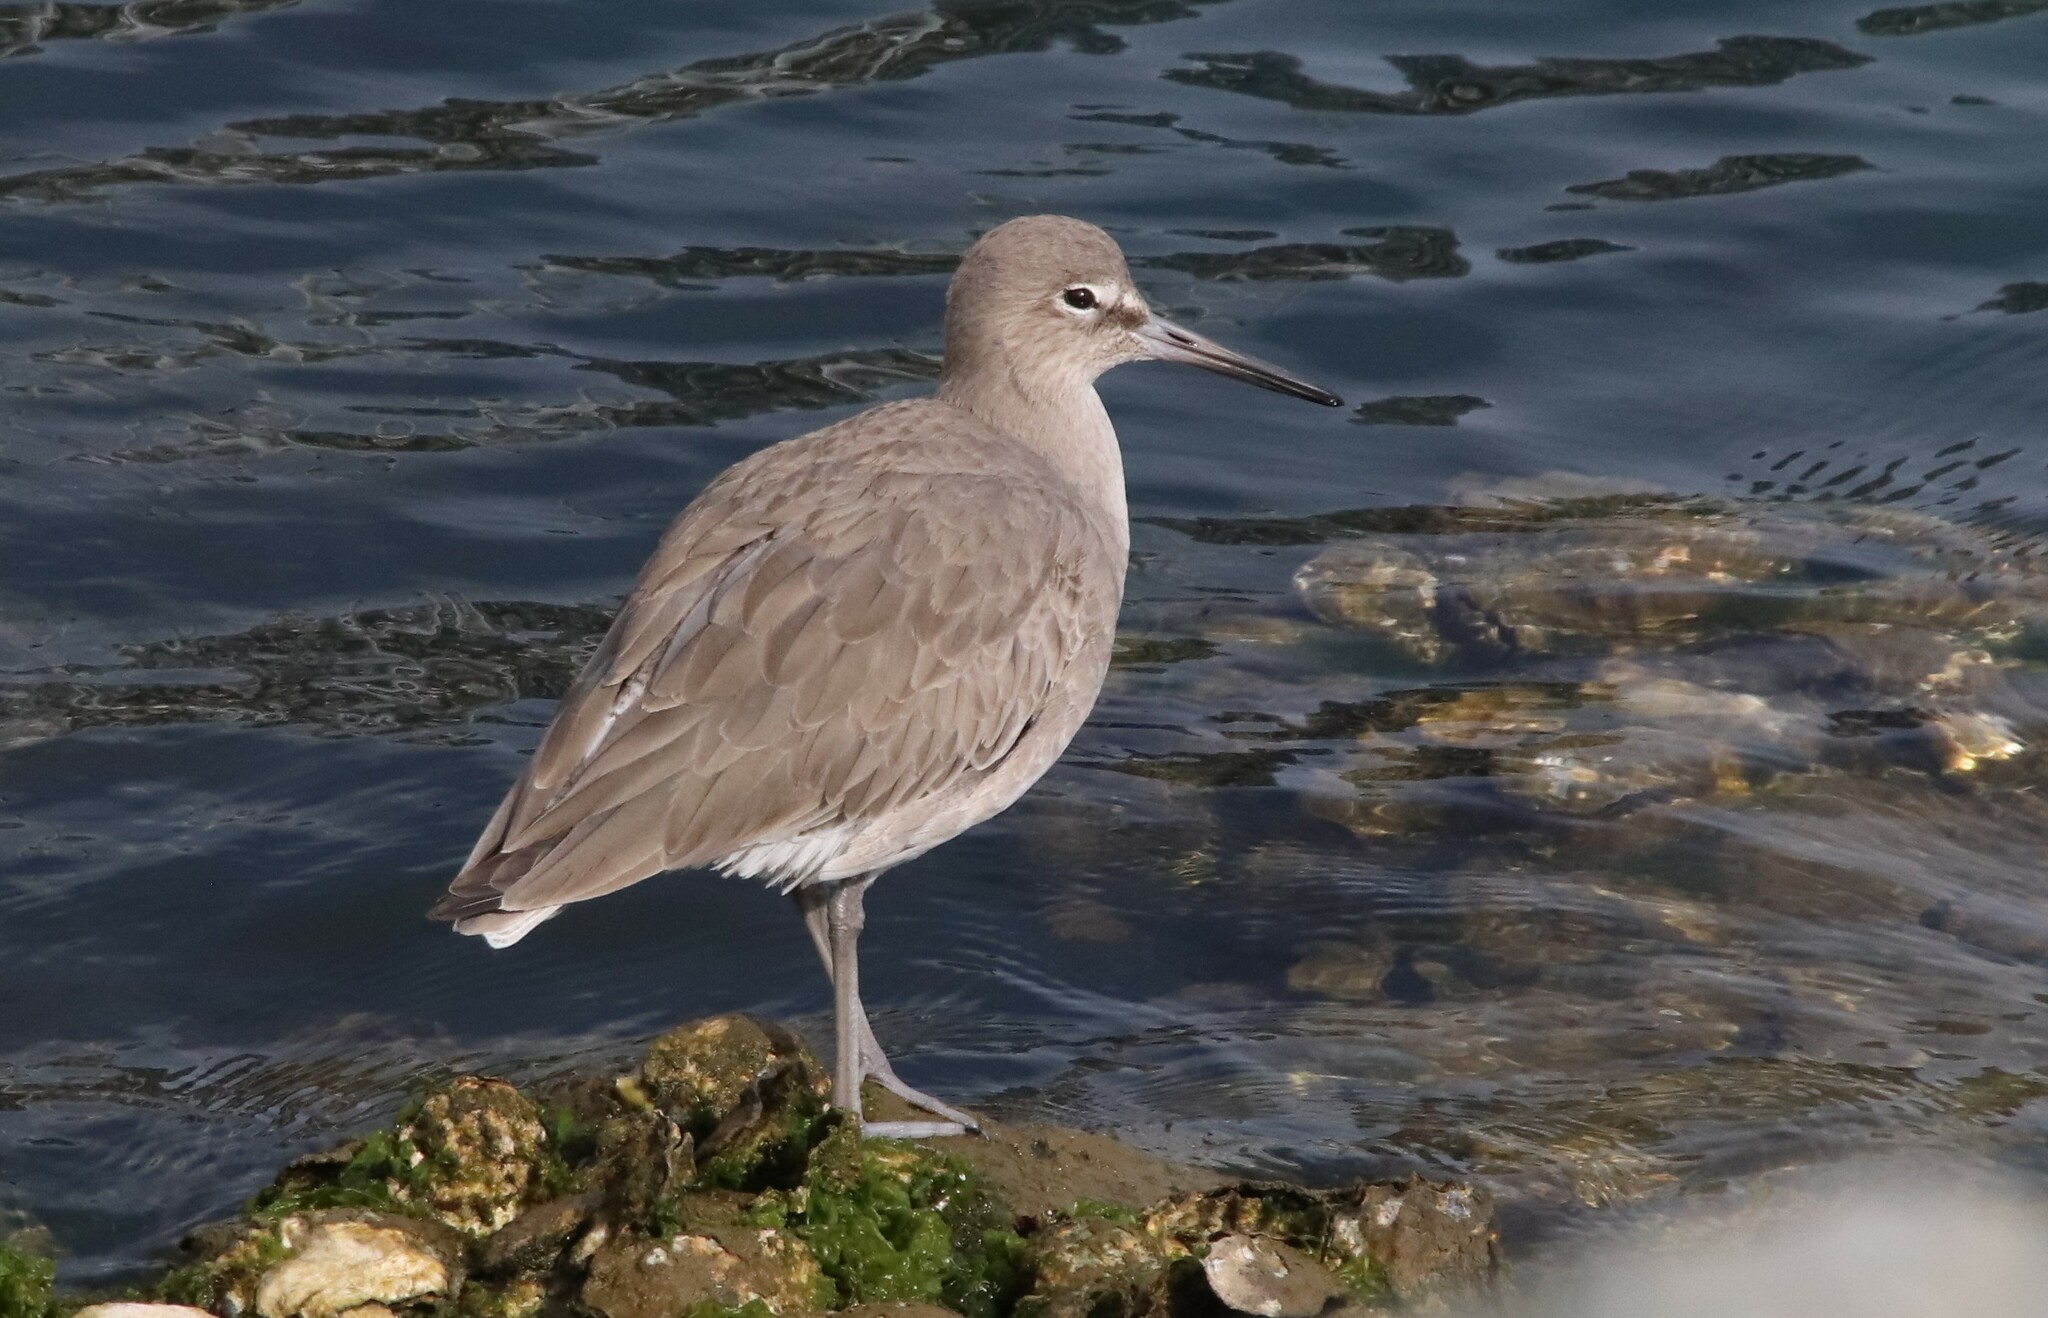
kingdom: Animalia
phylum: Chordata
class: Aves
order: Charadriiformes
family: Scolopacidae
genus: Tringa
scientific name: Tringa semipalmata
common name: Willet
